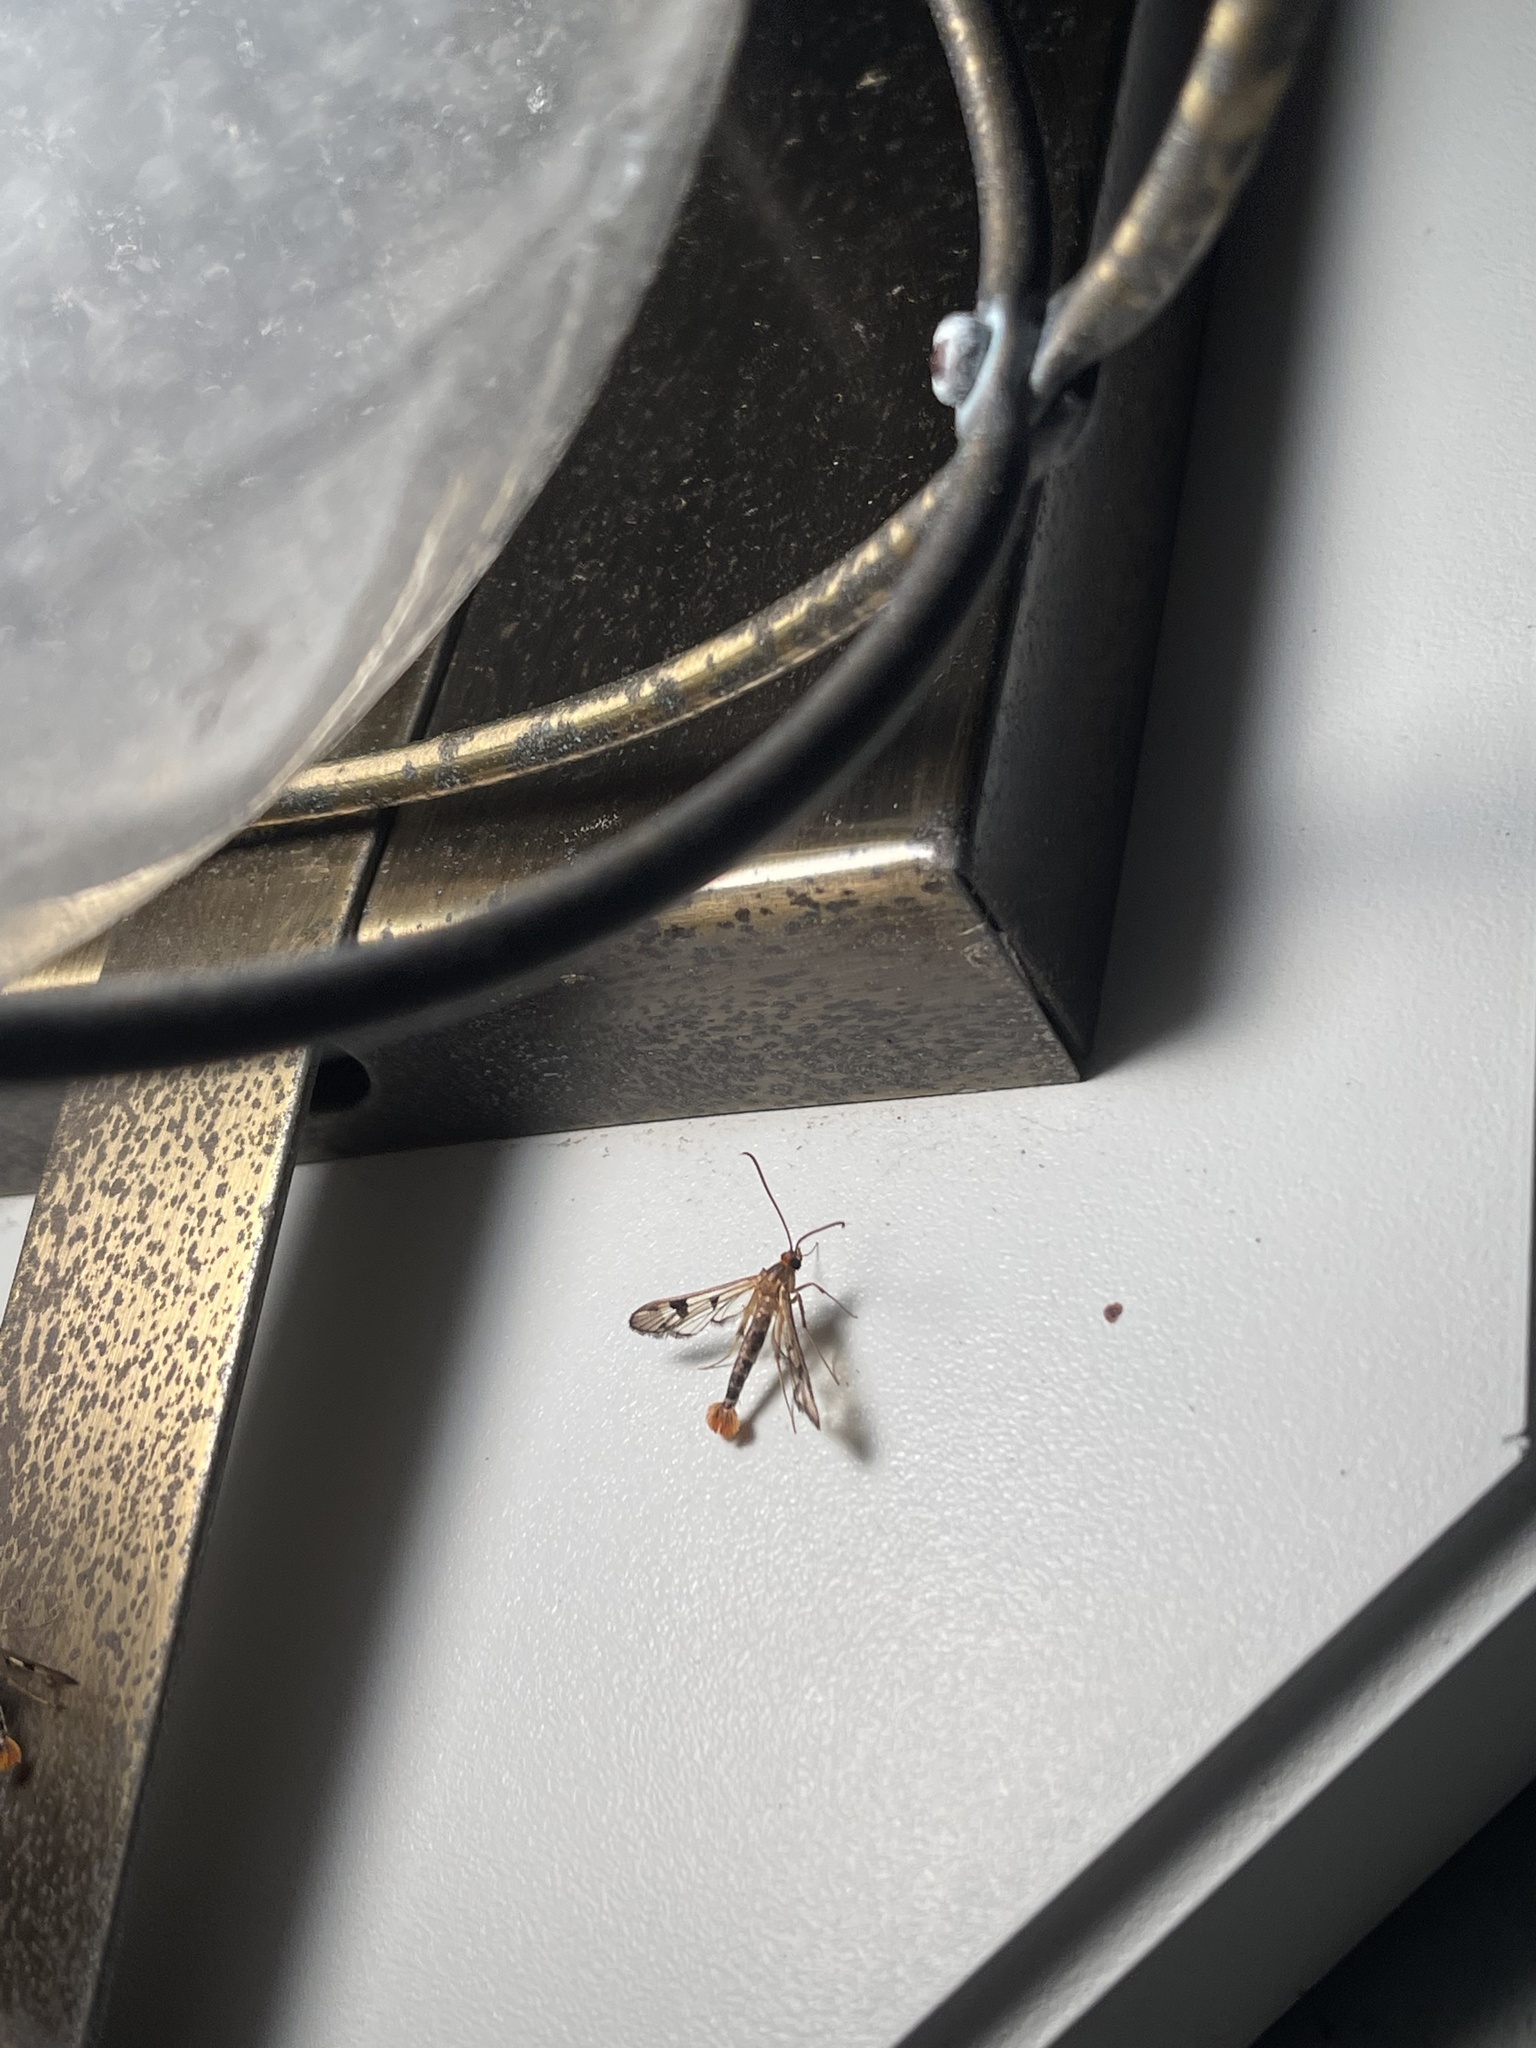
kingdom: Animalia
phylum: Arthropoda
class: Insecta
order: Lepidoptera
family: Sesiidae
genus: Synanthedon
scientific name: Synanthedon acerni
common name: Maple callus borer moth
